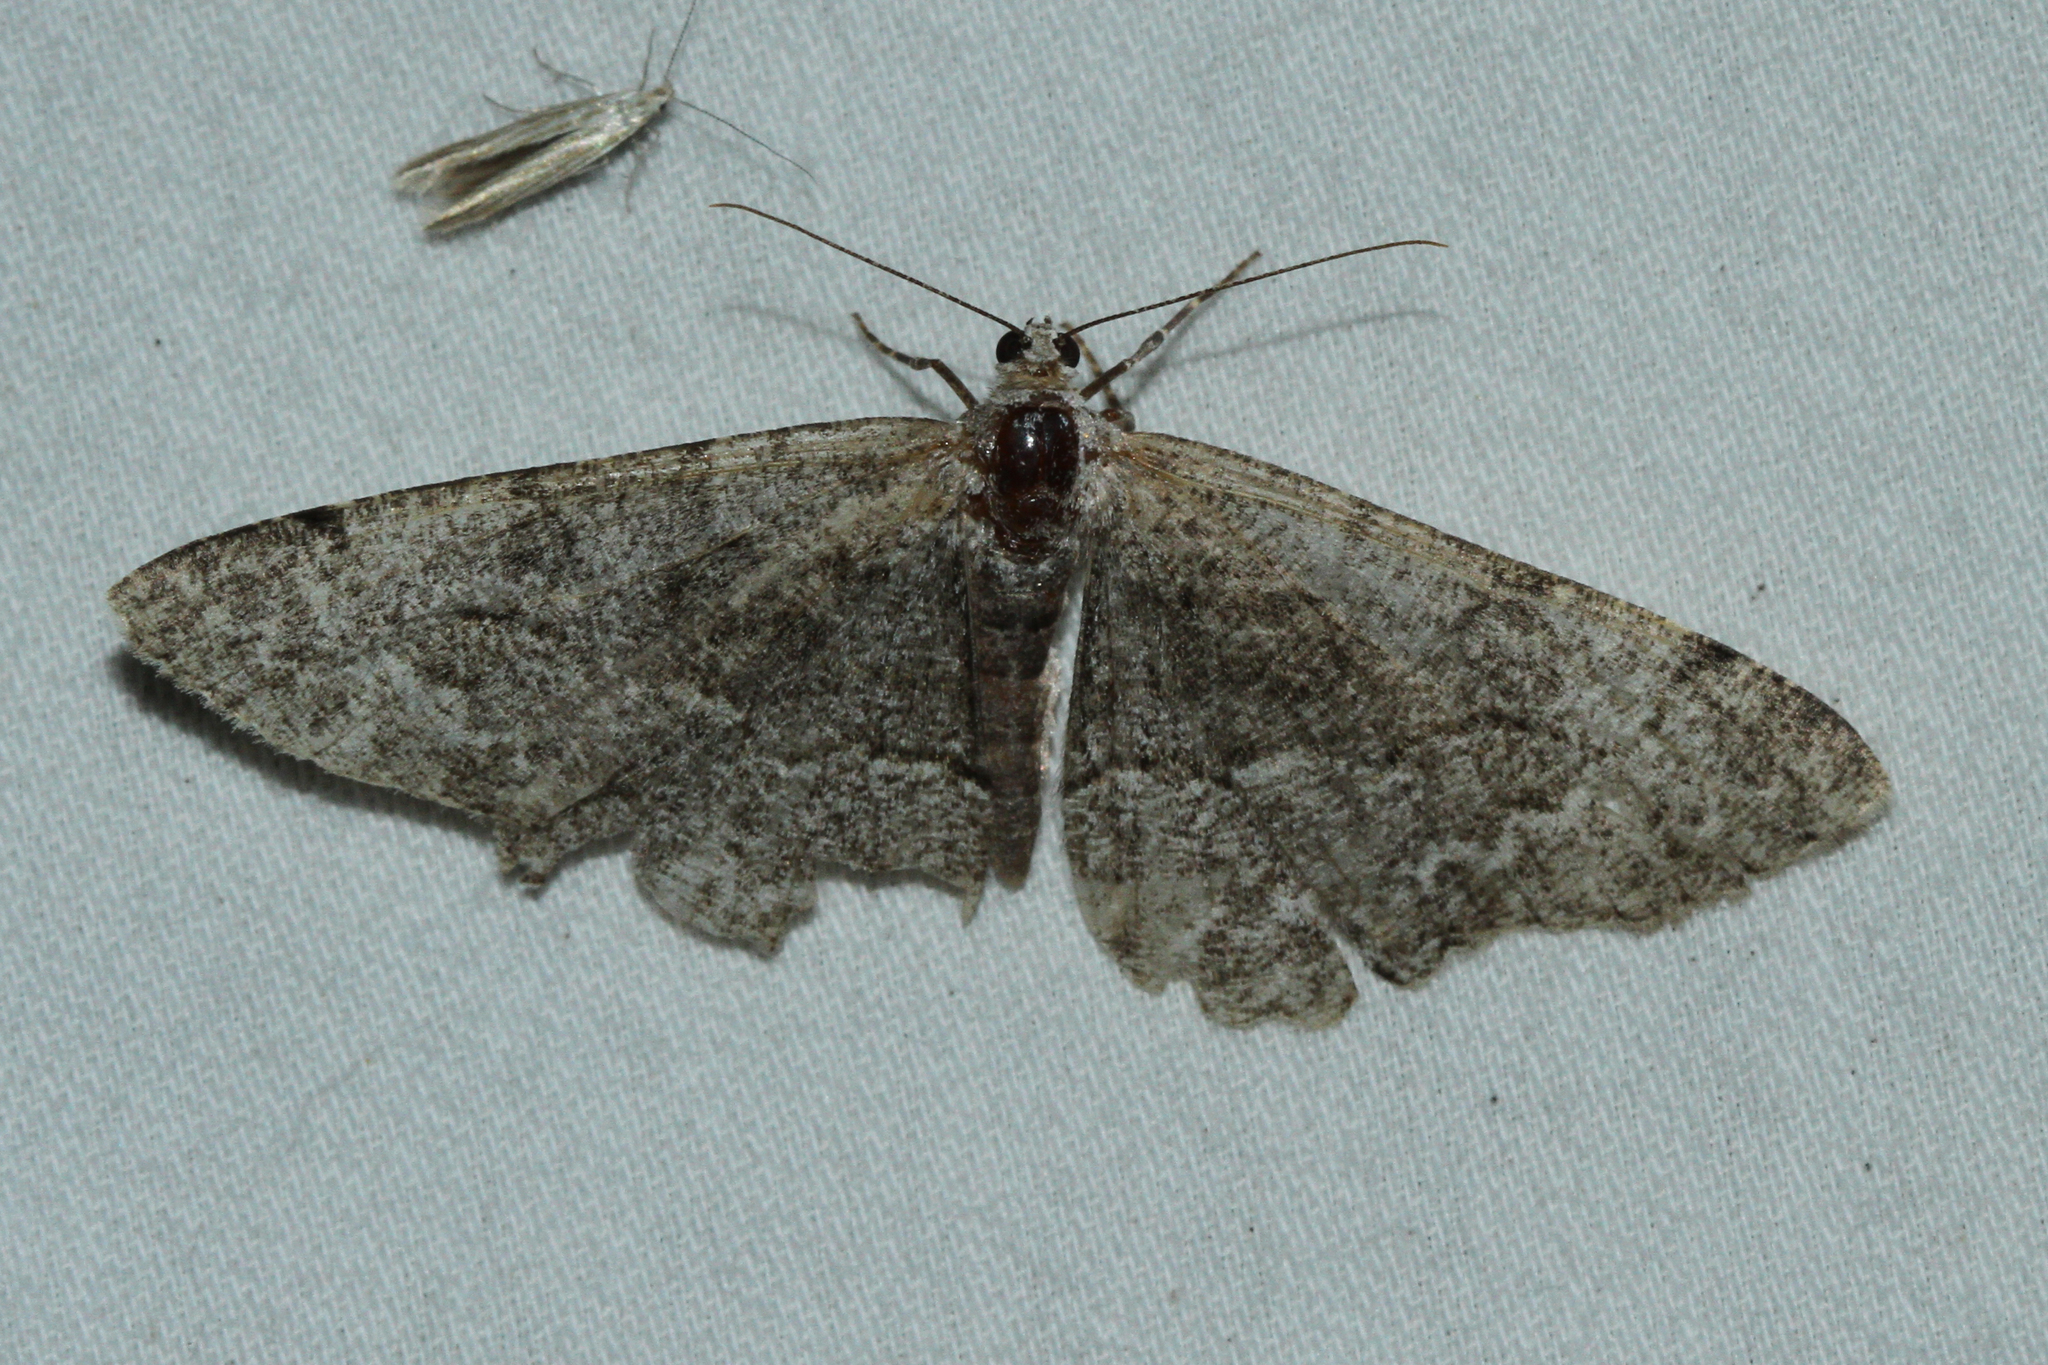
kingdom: Animalia
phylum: Arthropoda
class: Insecta
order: Lepidoptera
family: Geometridae
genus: Alcis
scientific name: Alcis repandata
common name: Mottled beauty
